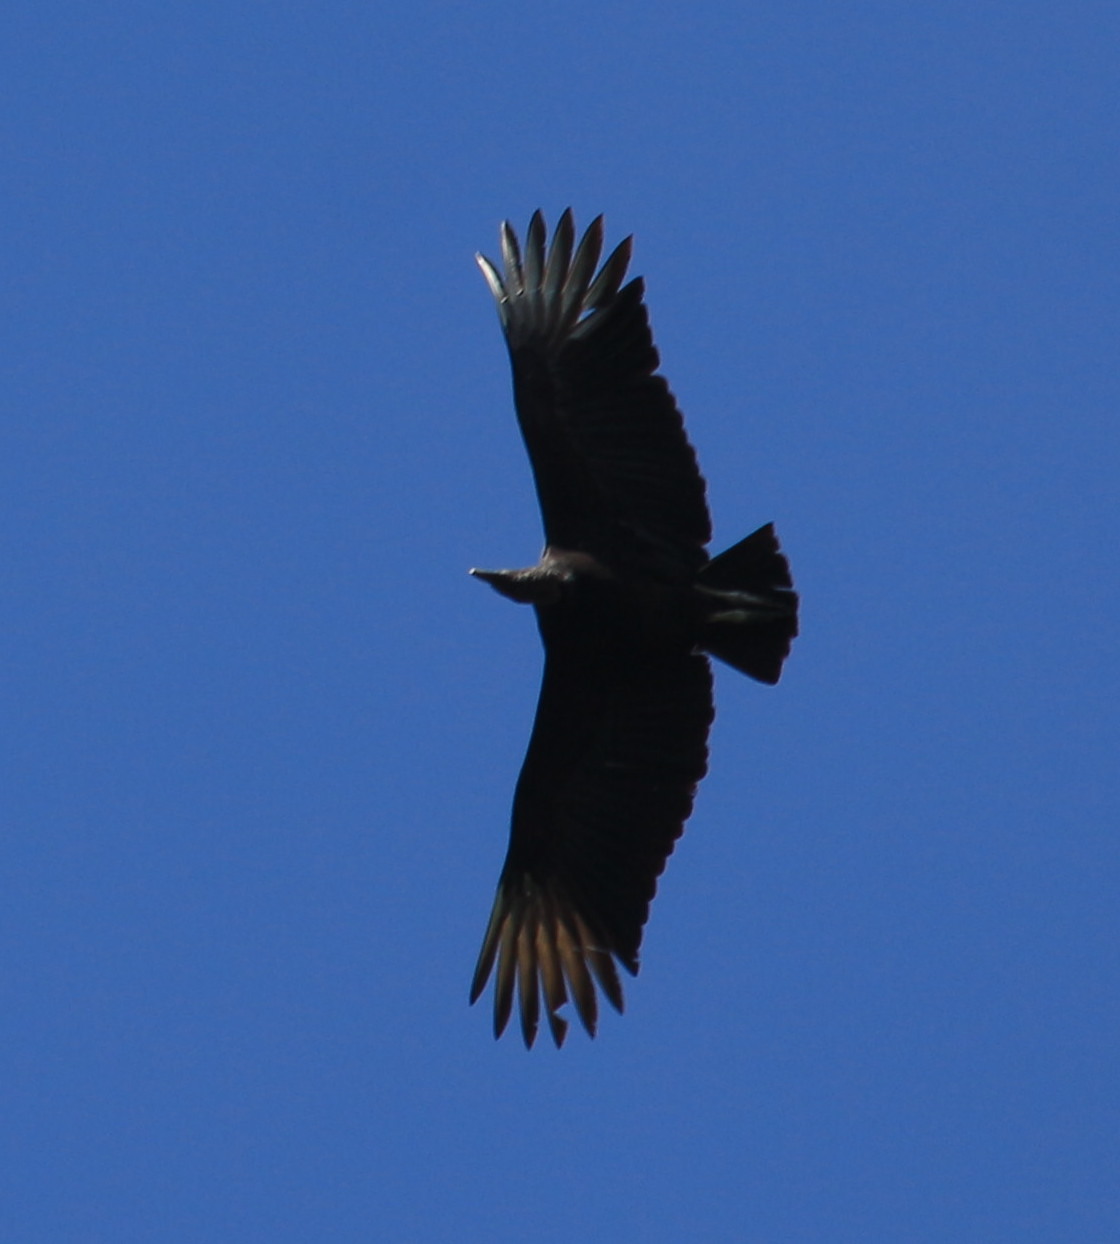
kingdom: Animalia
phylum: Chordata
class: Aves
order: Accipitriformes
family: Cathartidae
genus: Coragyps
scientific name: Coragyps atratus
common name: Black vulture
